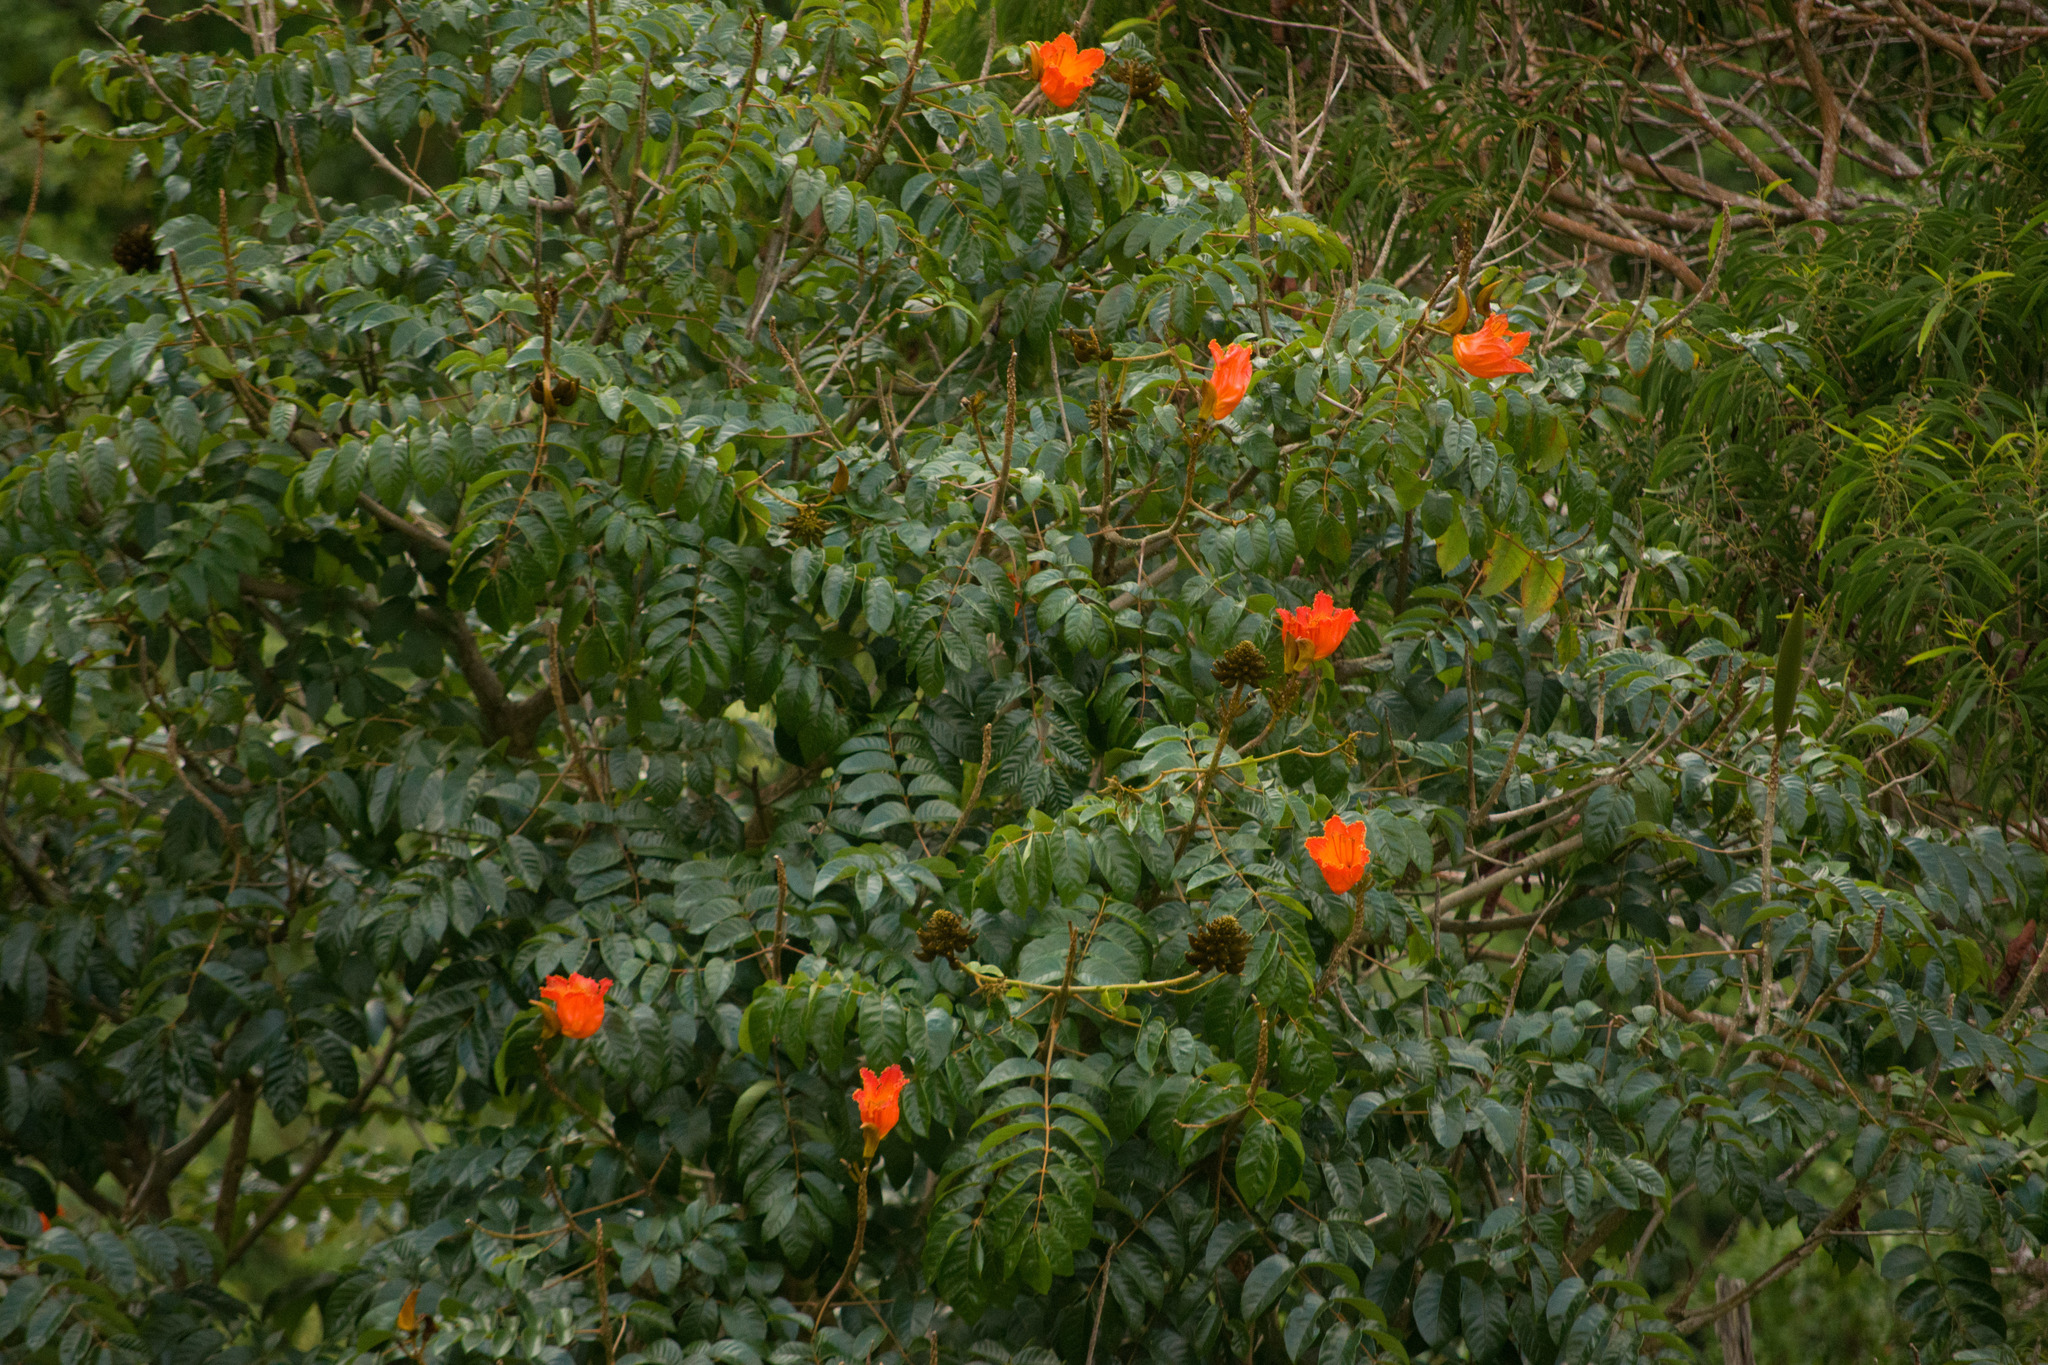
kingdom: Plantae
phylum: Tracheophyta
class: Magnoliopsida
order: Lamiales
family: Bignoniaceae
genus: Spathodea
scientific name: Spathodea campanulata
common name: African tuliptree
